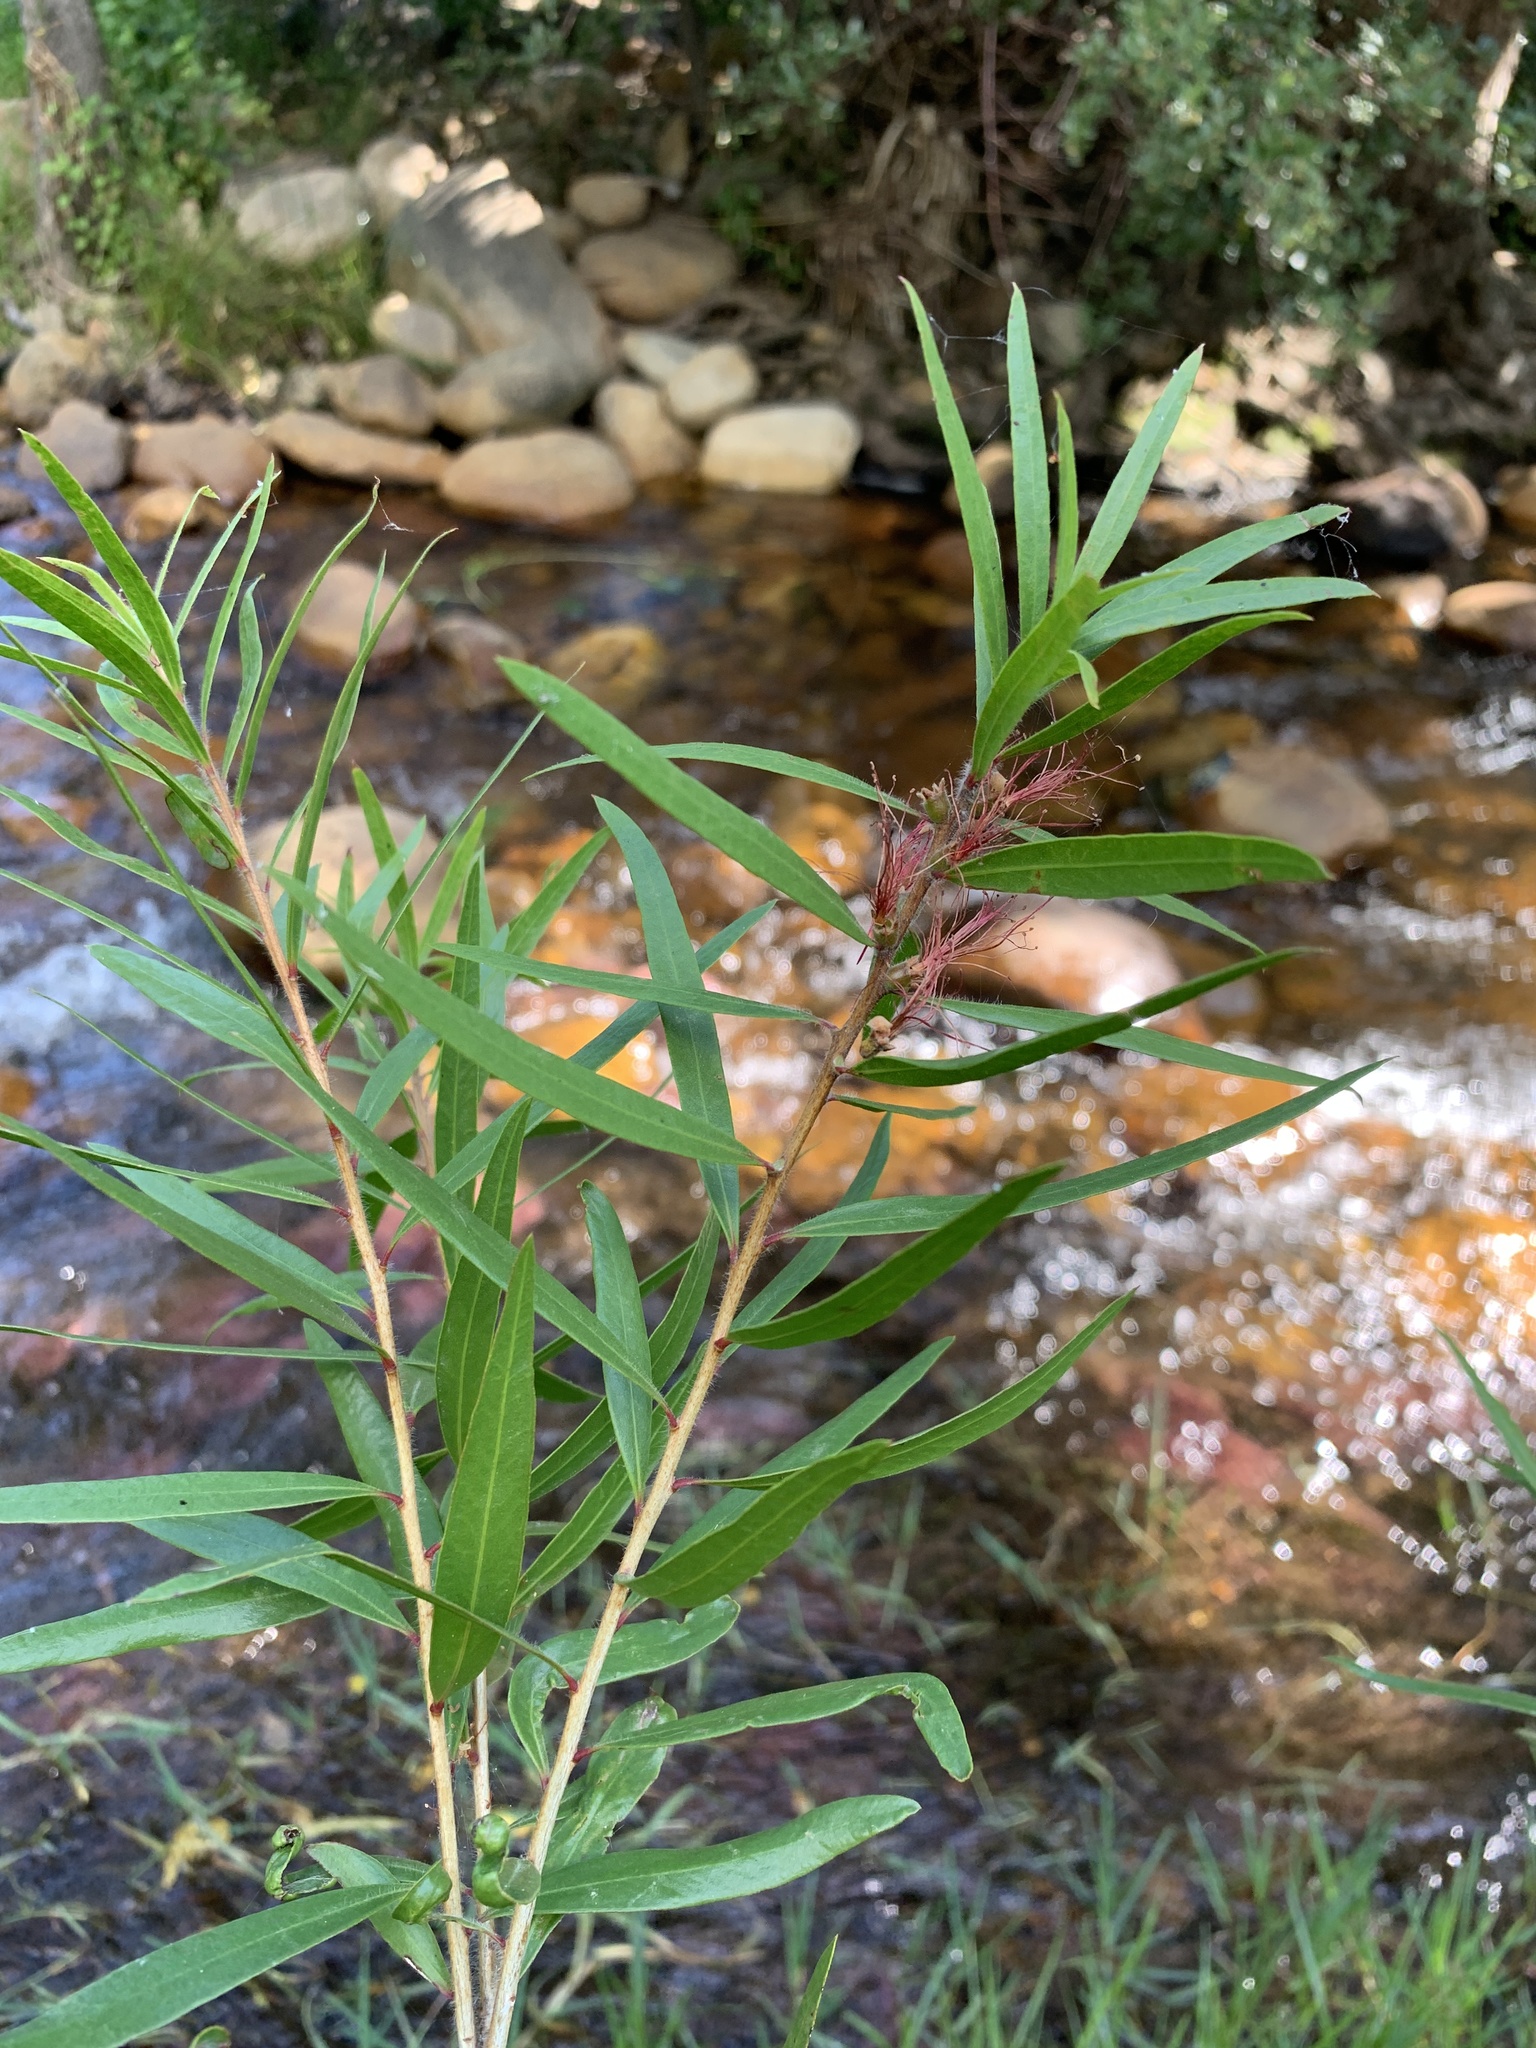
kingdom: Plantae
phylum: Tracheophyta
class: Magnoliopsida
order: Myrtales
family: Myrtaceae
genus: Callistemon
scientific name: Callistemon viminalis
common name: Drooping bottlebrush
